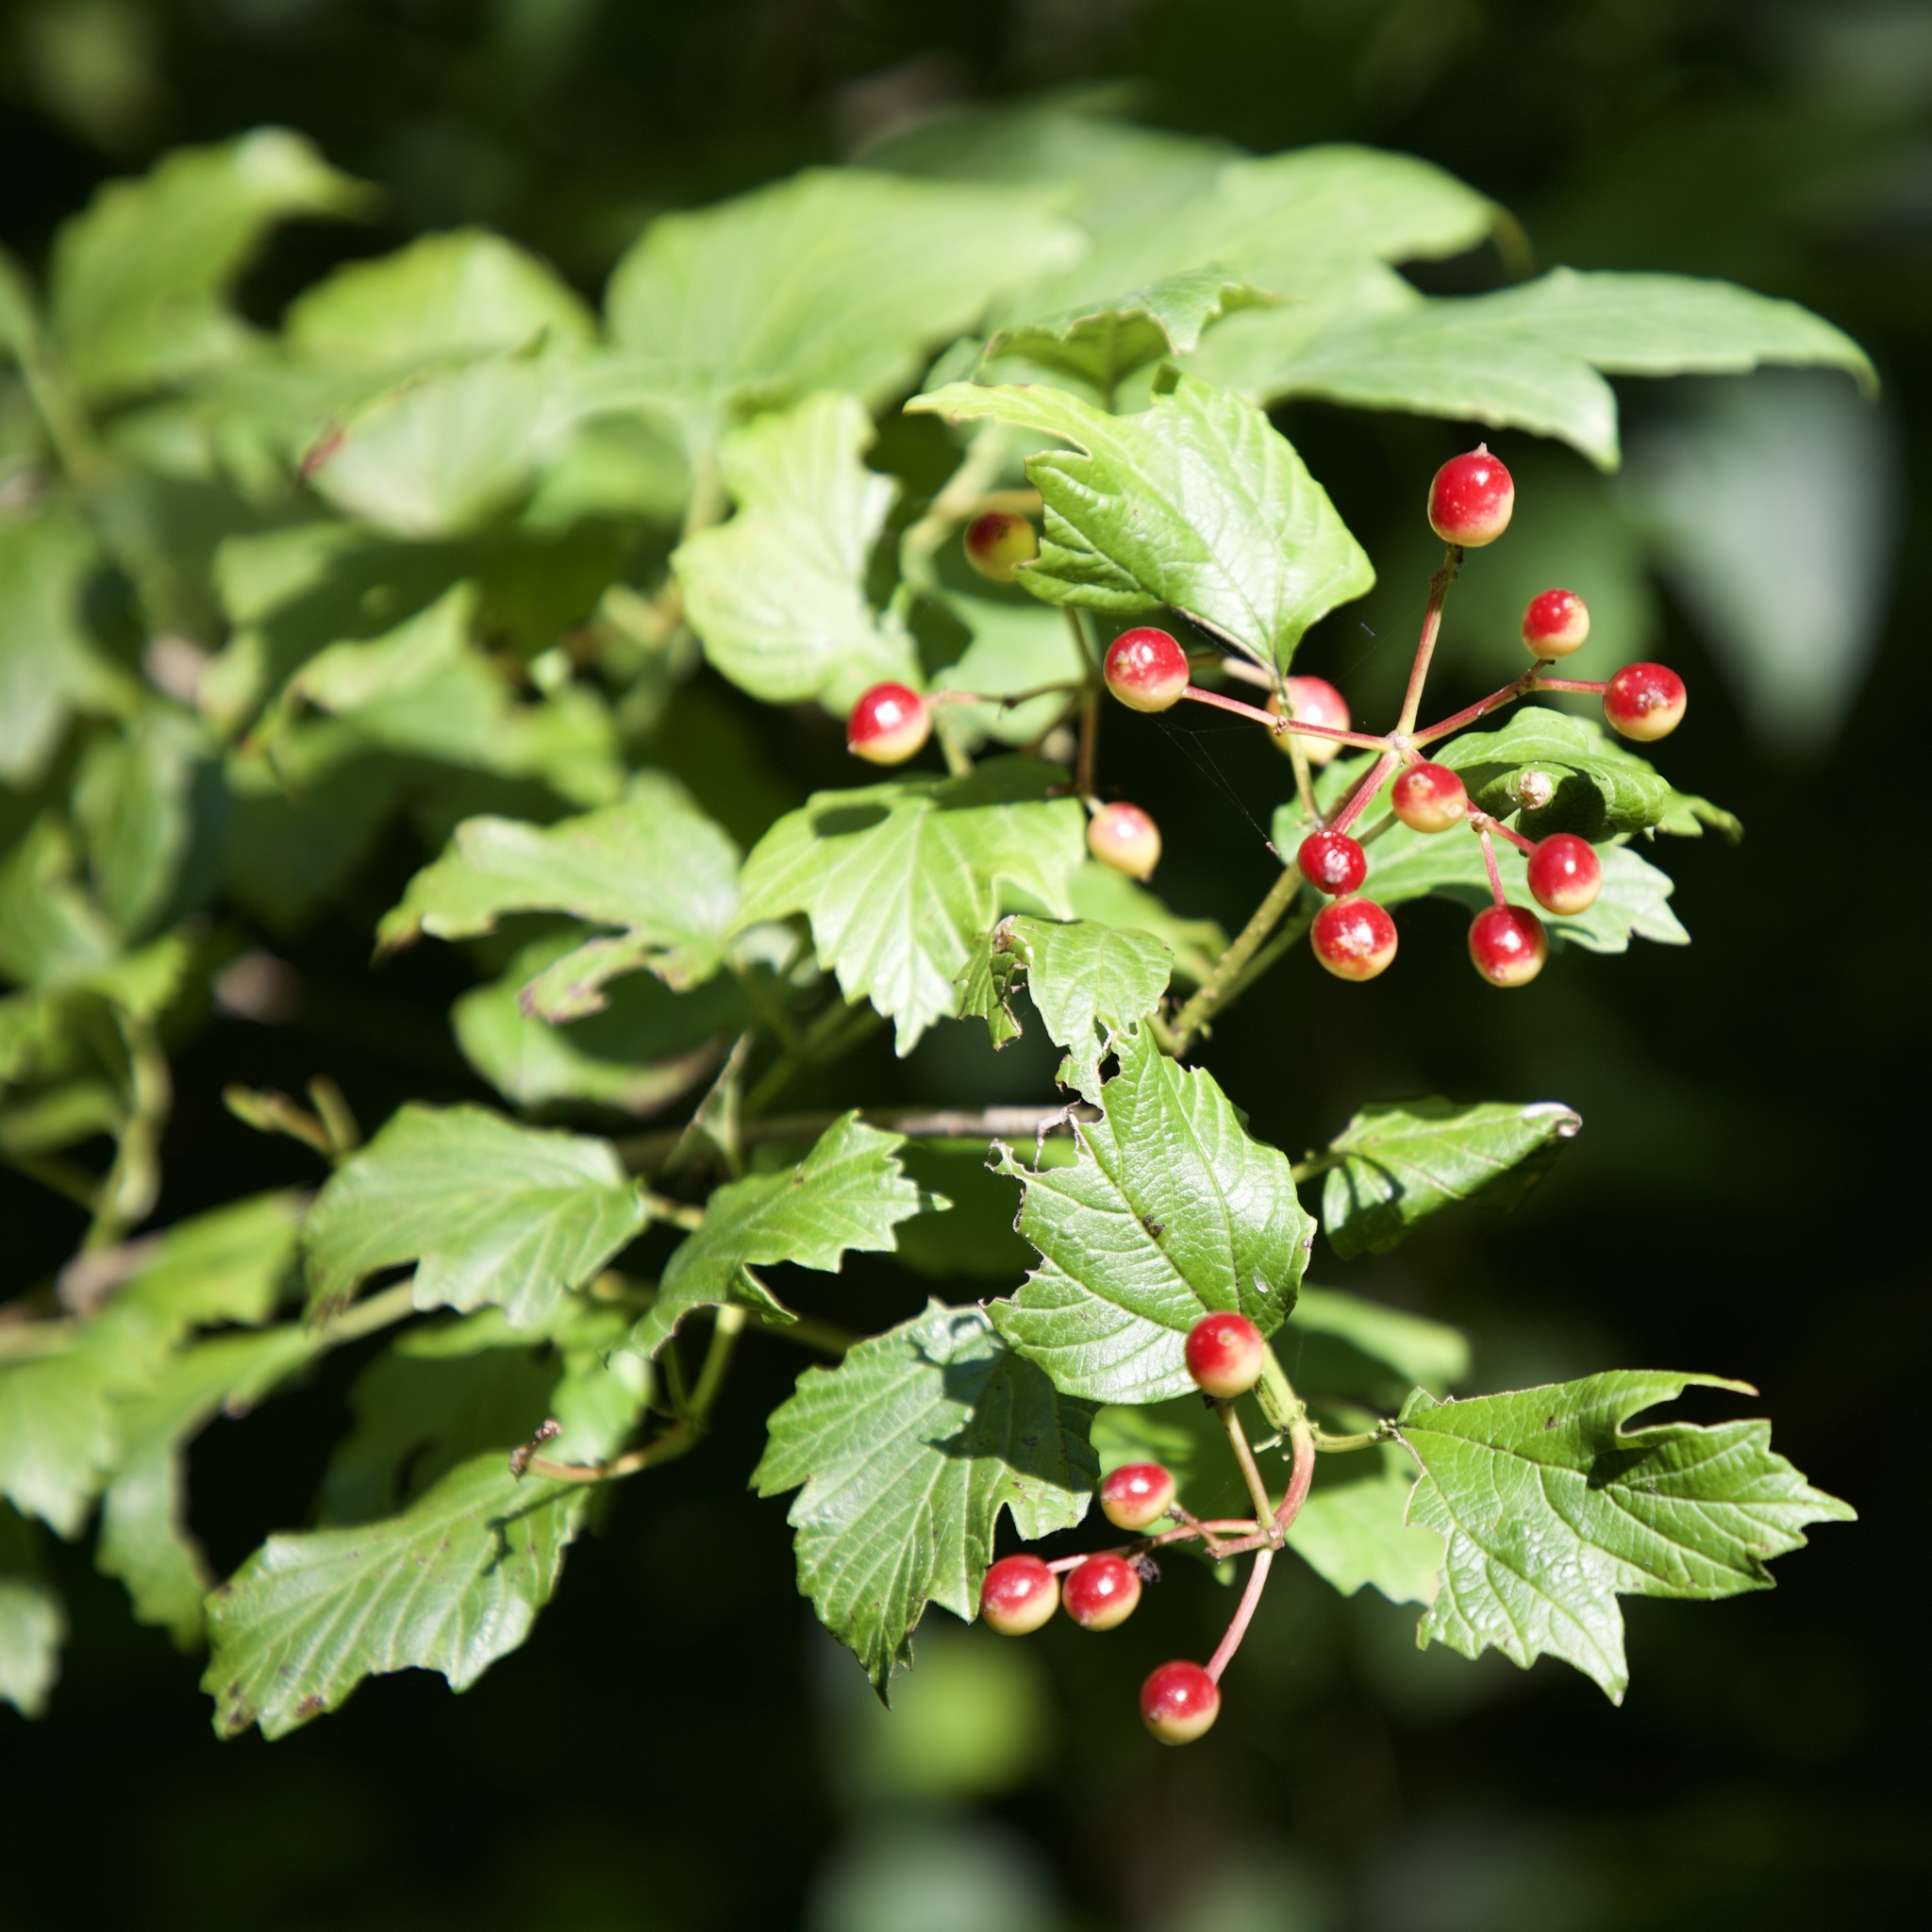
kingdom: Plantae
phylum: Tracheophyta
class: Magnoliopsida
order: Dipsacales
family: Viburnaceae
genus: Viburnum
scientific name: Viburnum opulus
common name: Guelder-rose
